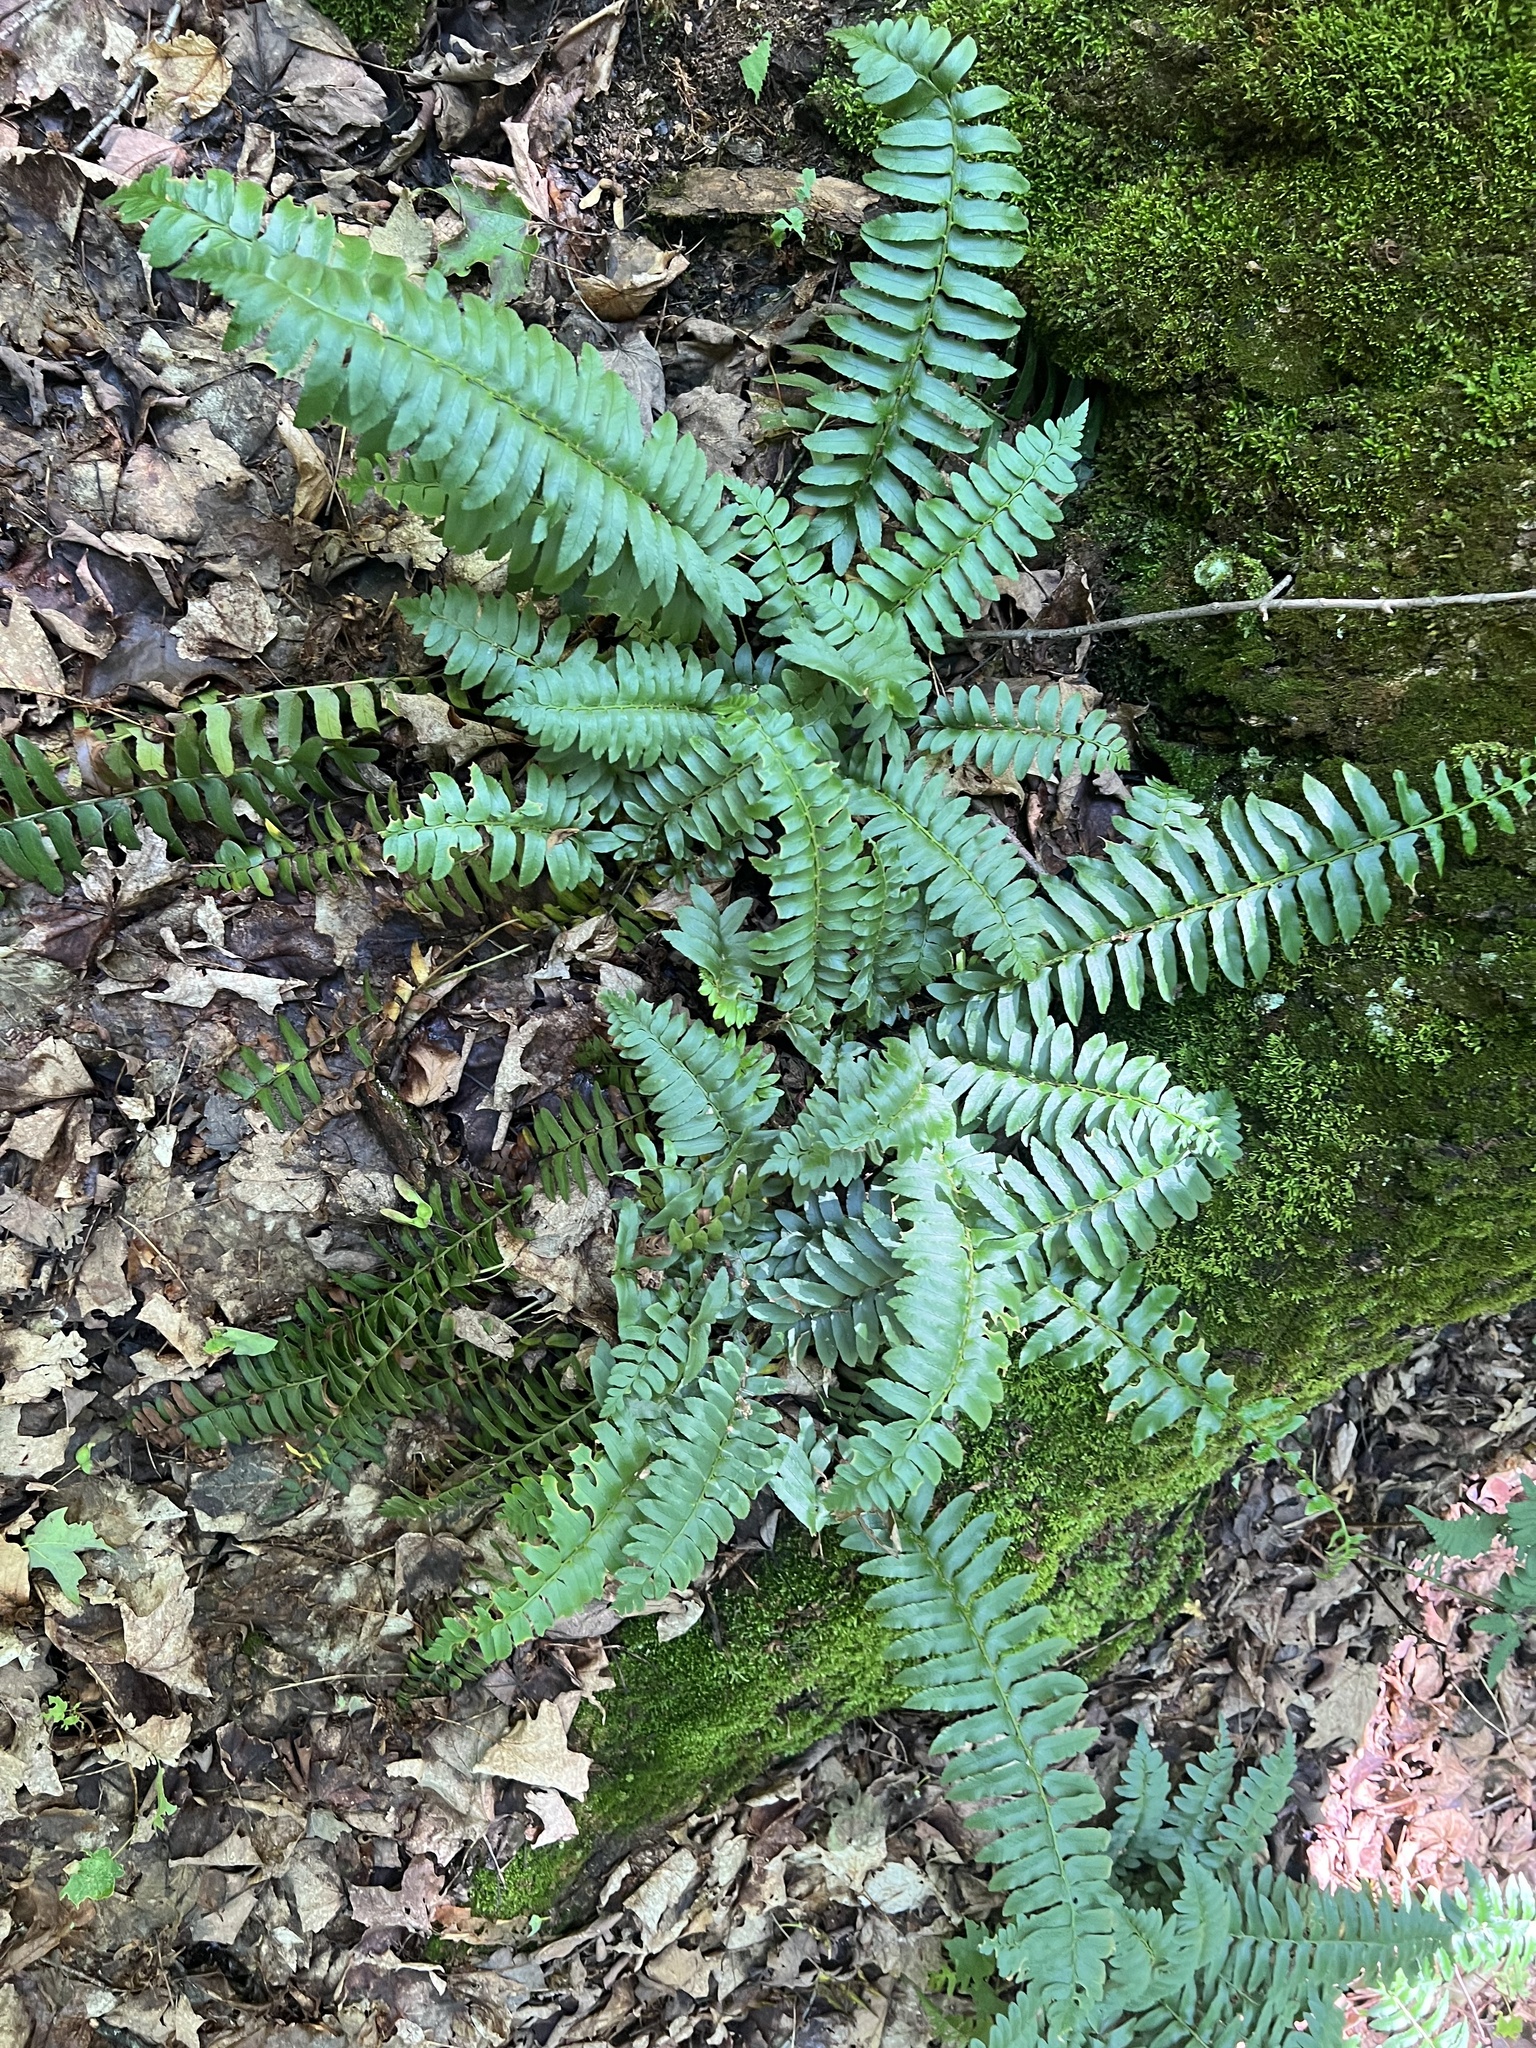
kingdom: Plantae
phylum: Tracheophyta
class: Polypodiopsida
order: Polypodiales
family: Dryopteridaceae
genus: Polystichum
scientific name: Polystichum acrostichoides
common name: Christmas fern
